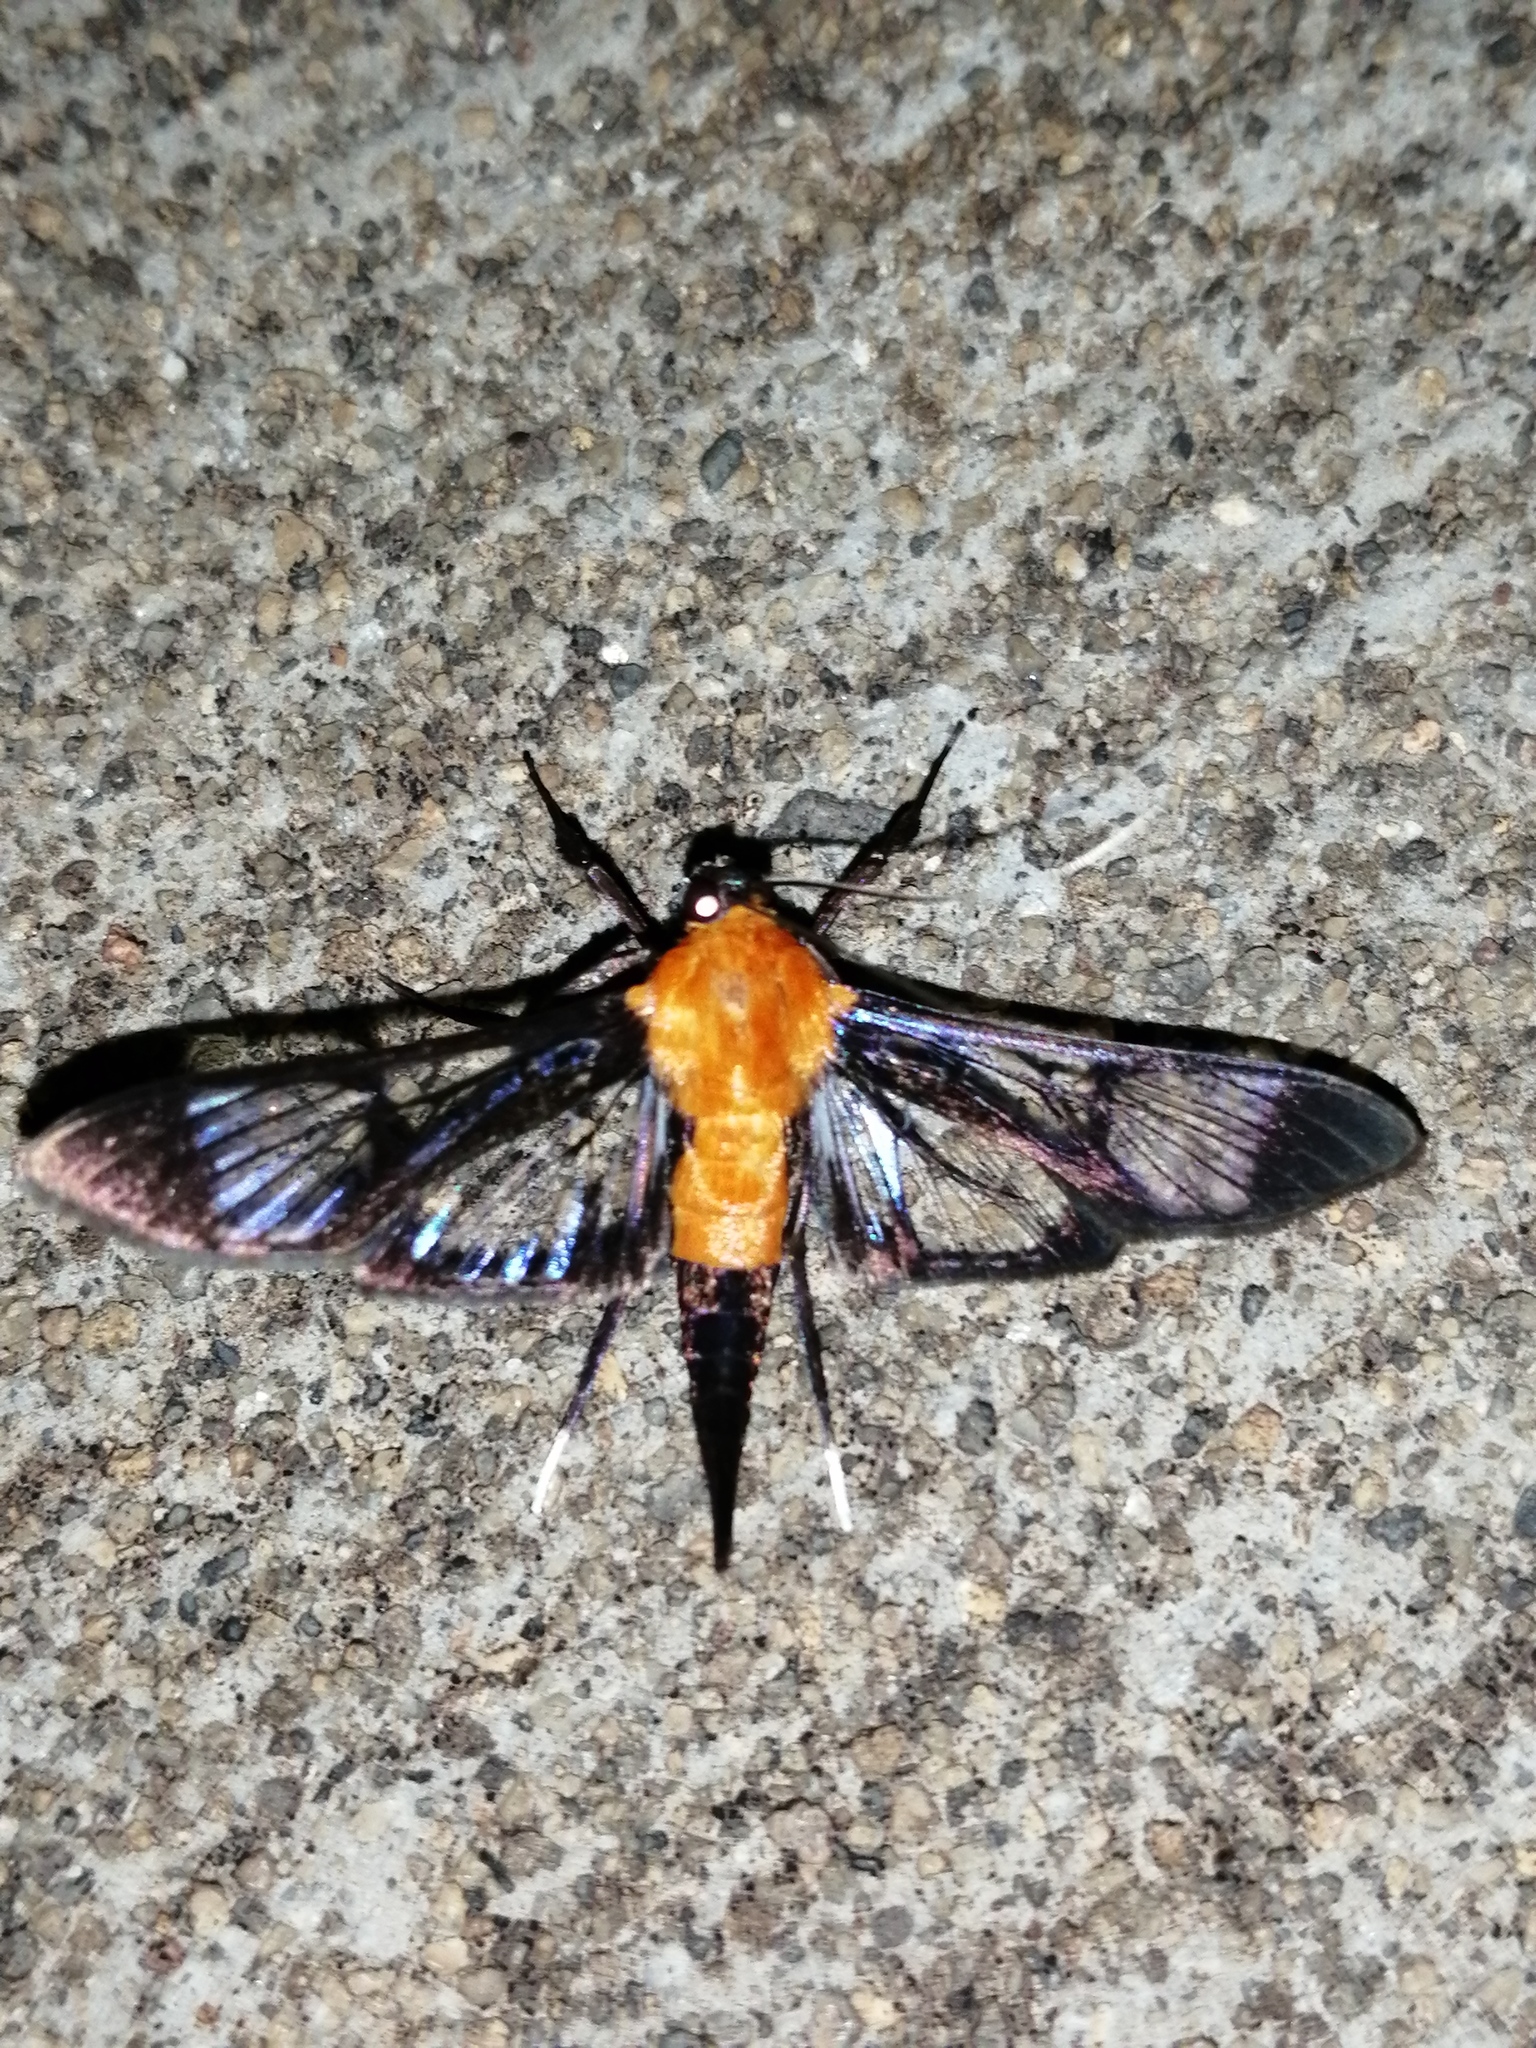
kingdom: Animalia
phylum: Arthropoda
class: Insecta
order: Lepidoptera
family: Crambidae
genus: Trichaea
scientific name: Trichaea pilicornis
